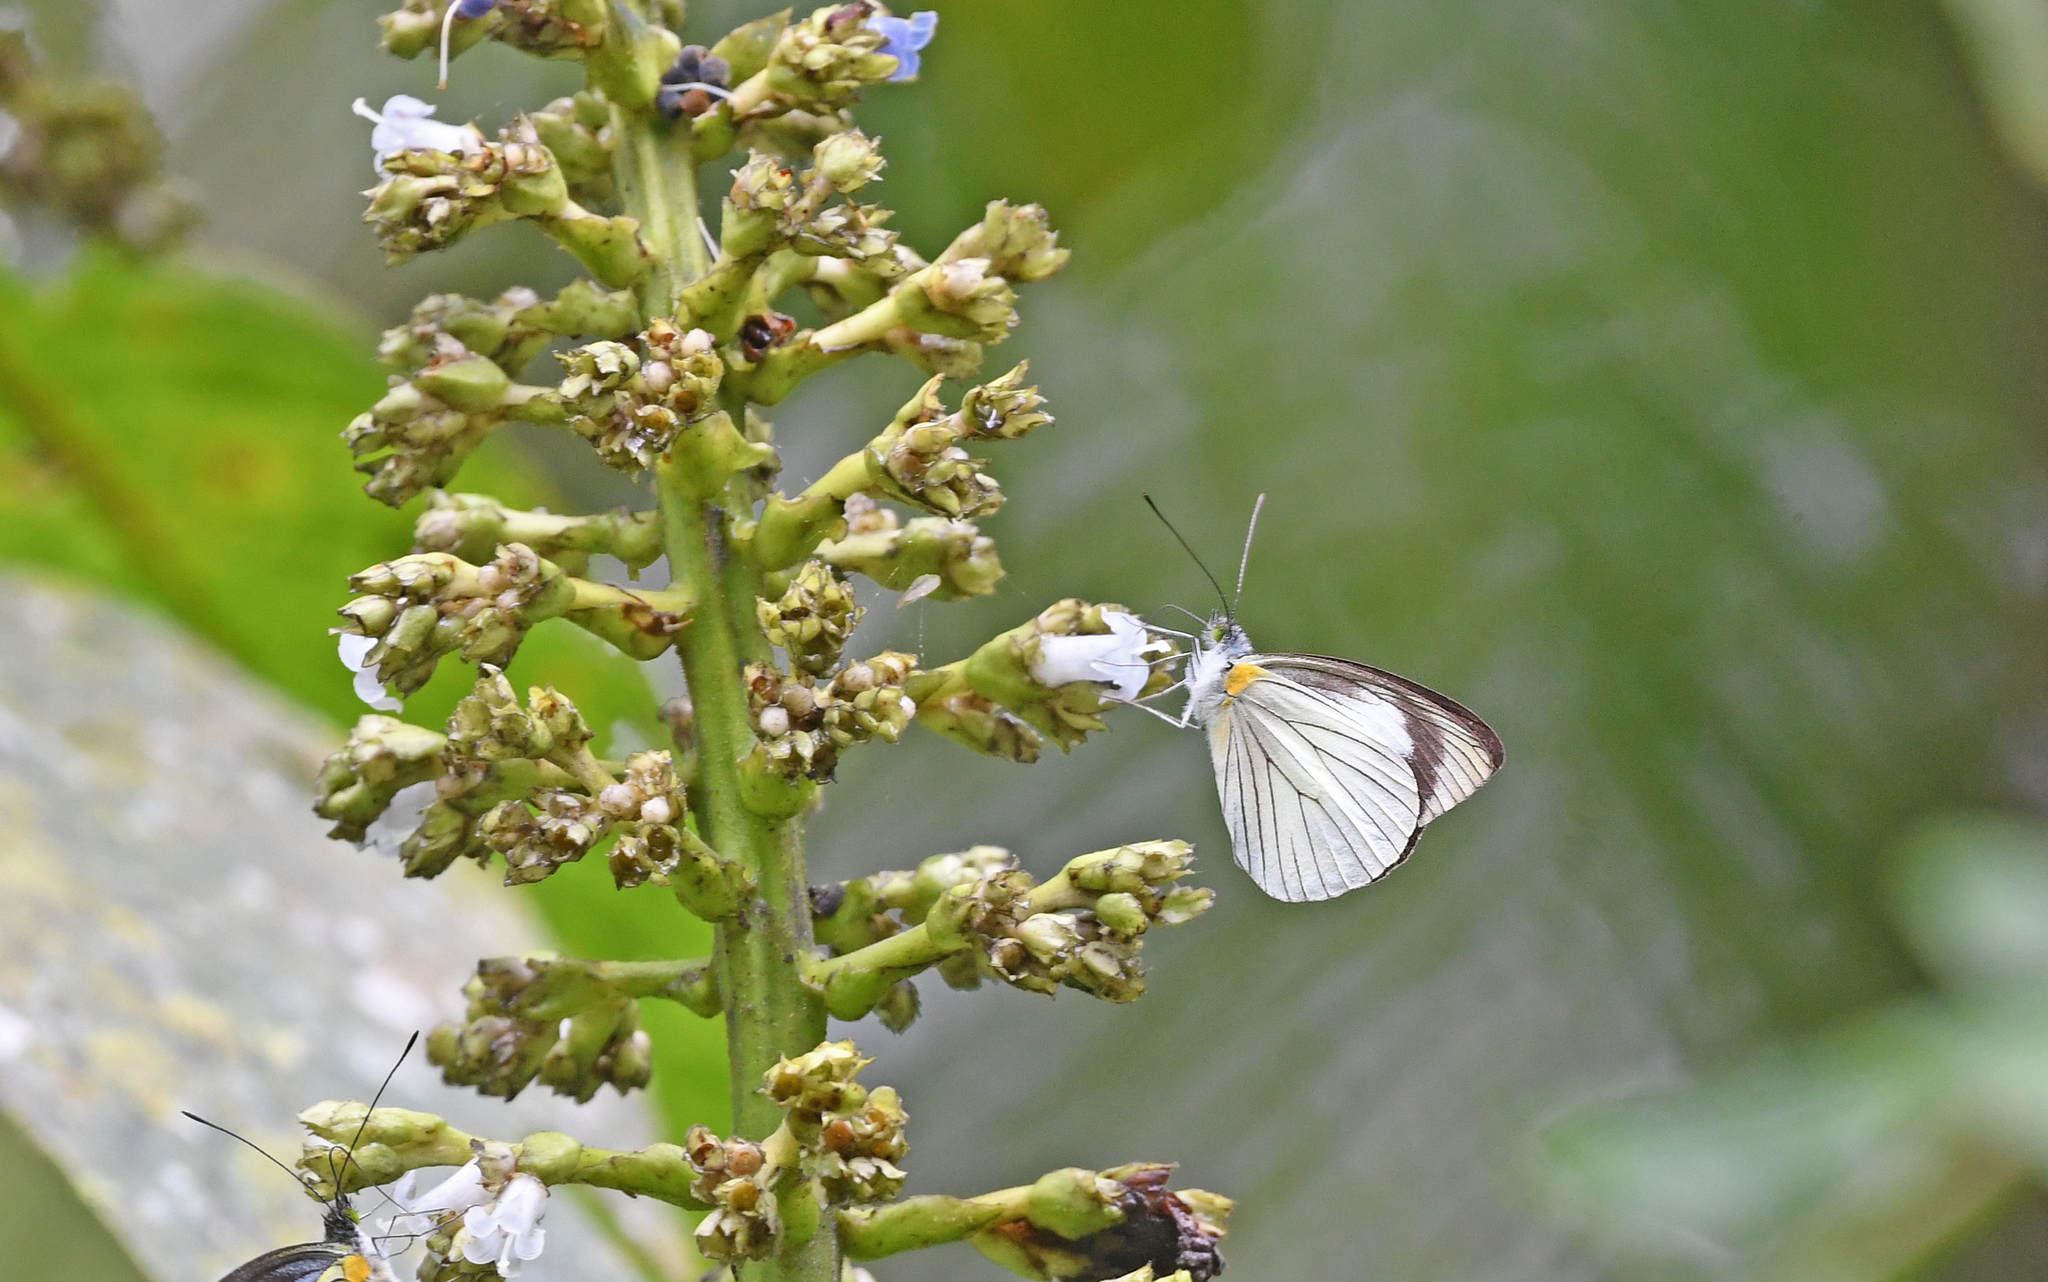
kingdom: Animalia
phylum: Arthropoda
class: Insecta
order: Lepidoptera
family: Pieridae
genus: Leptophobia
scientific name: Leptophobia tovaria
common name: Tovaria white
